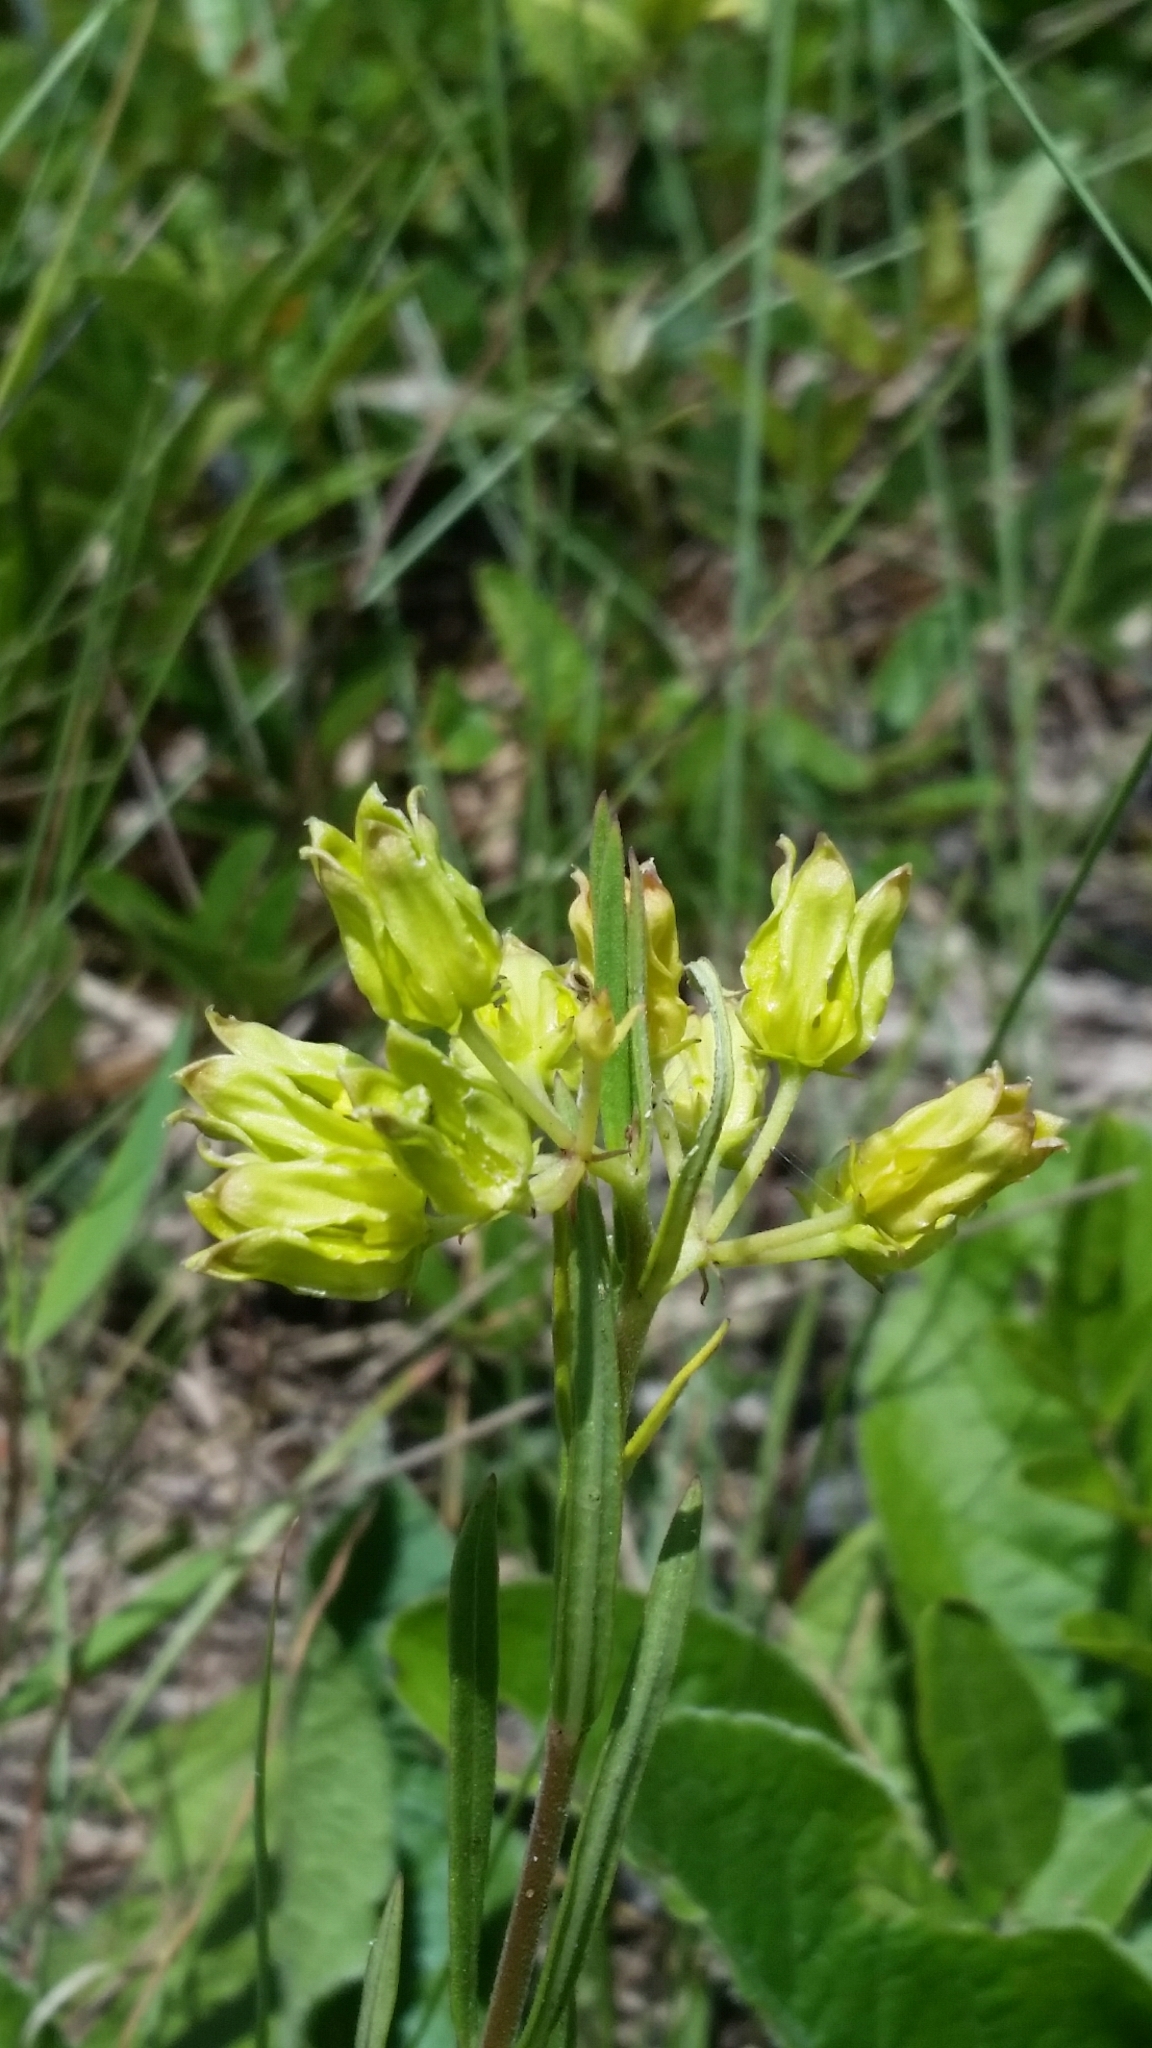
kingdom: Plantae
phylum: Tracheophyta
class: Magnoliopsida
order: Gentianales
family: Apocynaceae
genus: Asclepias
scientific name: Asclepias pedicellata
